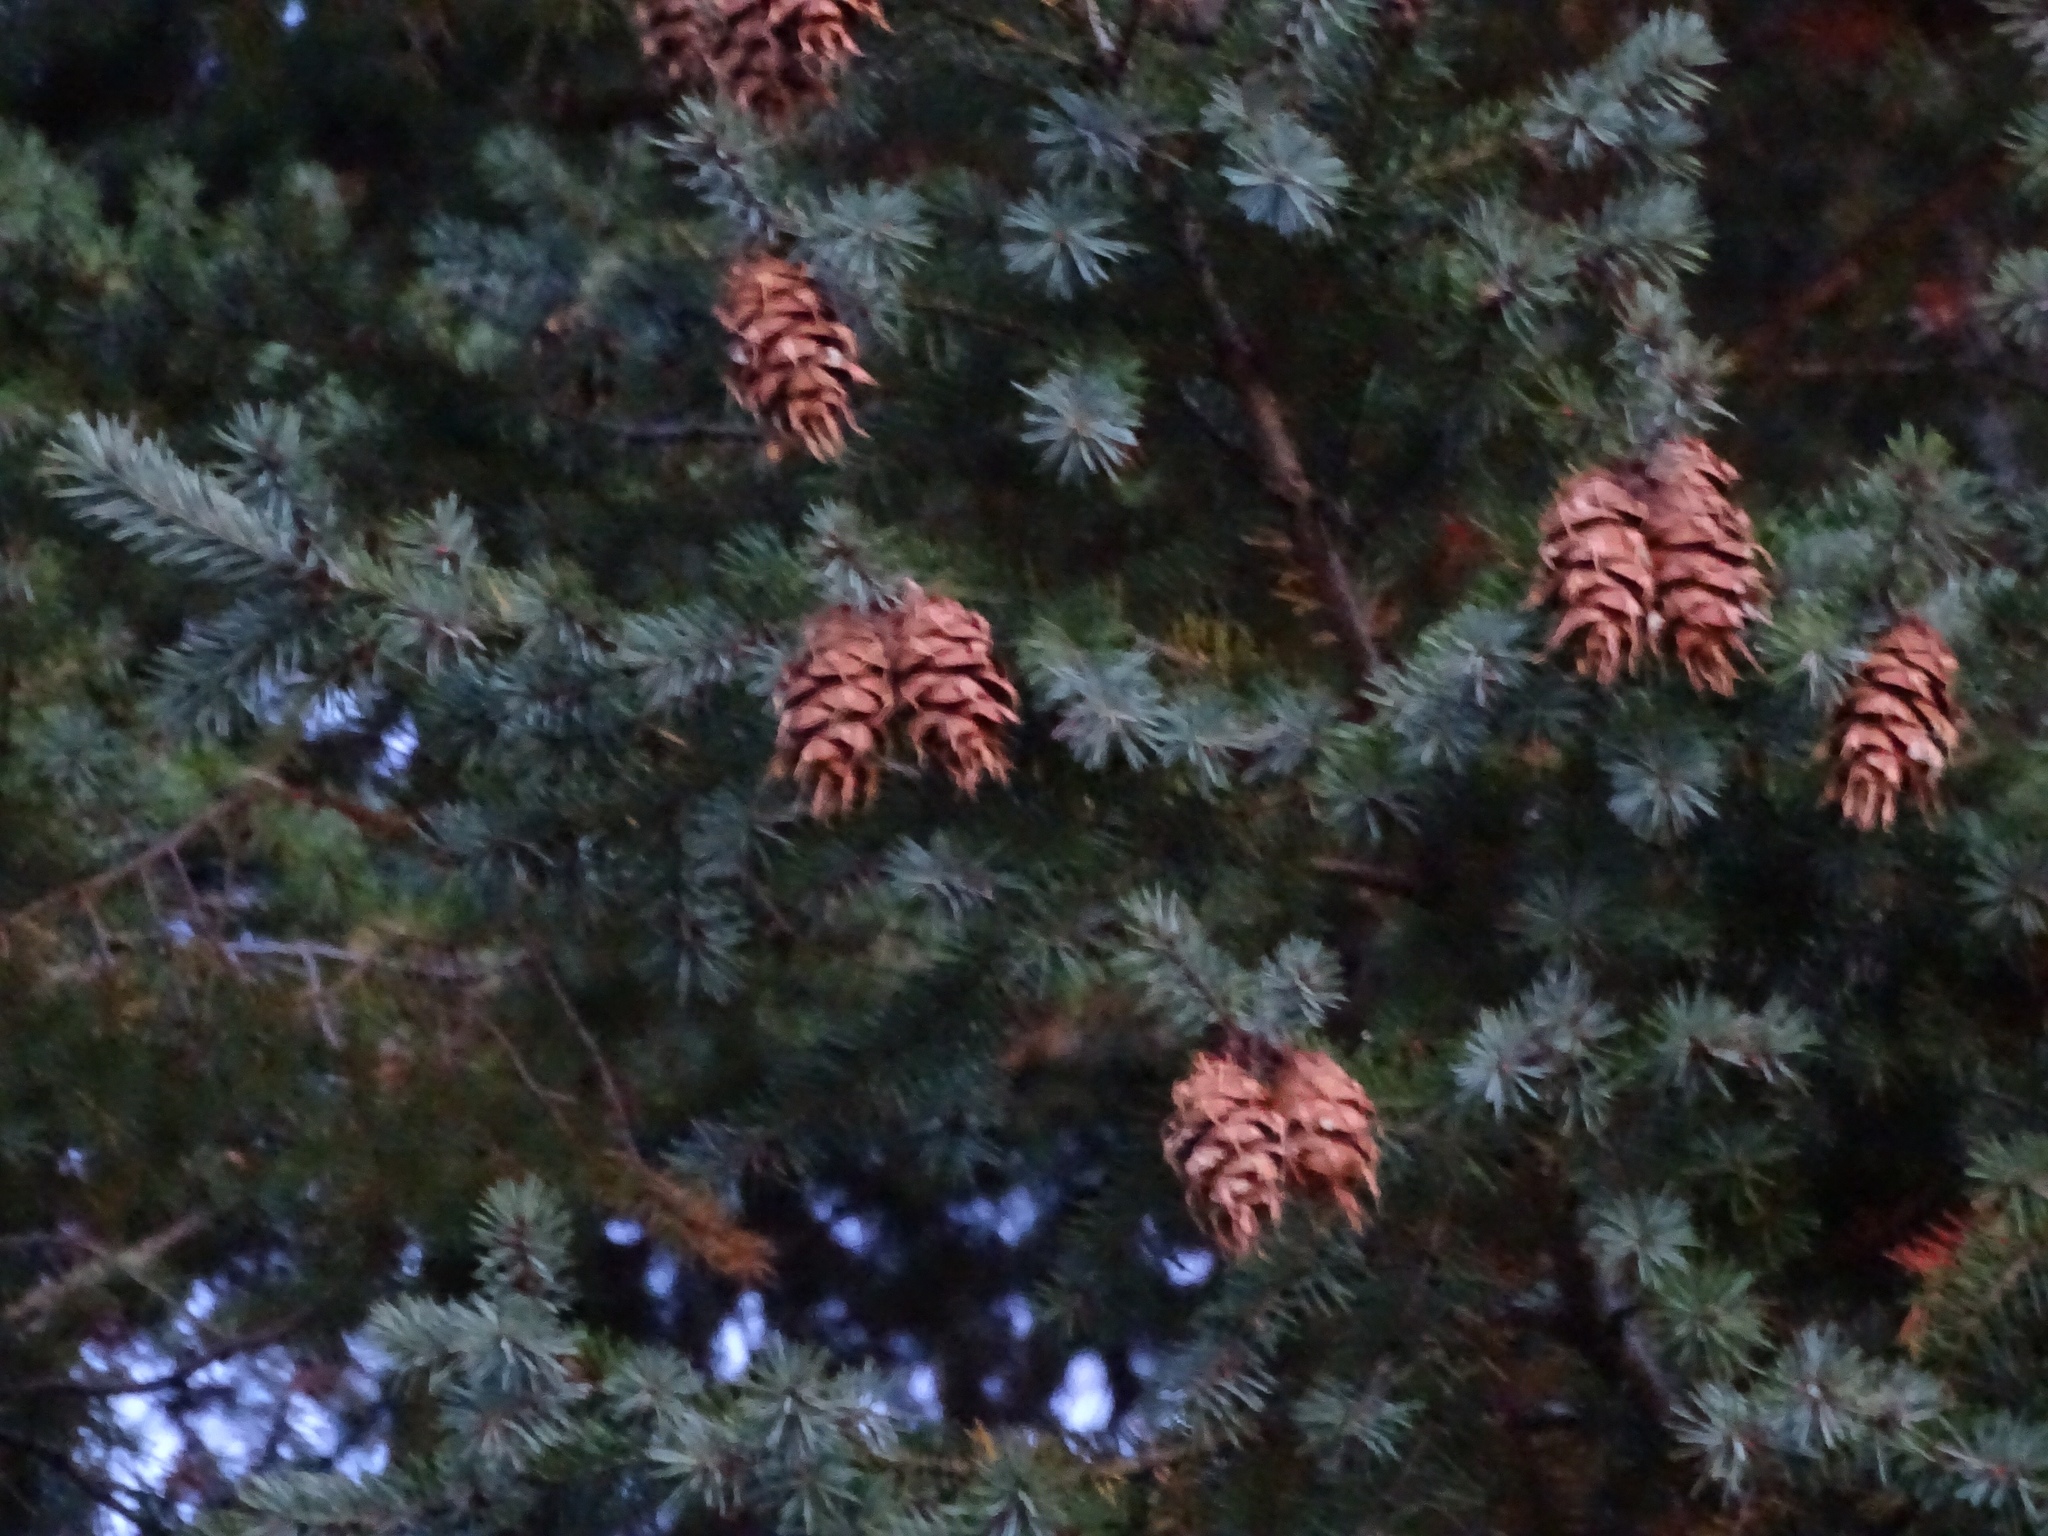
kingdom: Plantae
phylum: Tracheophyta
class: Pinopsida
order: Pinales
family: Pinaceae
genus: Pseudotsuga
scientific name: Pseudotsuga menziesii
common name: Douglas fir
